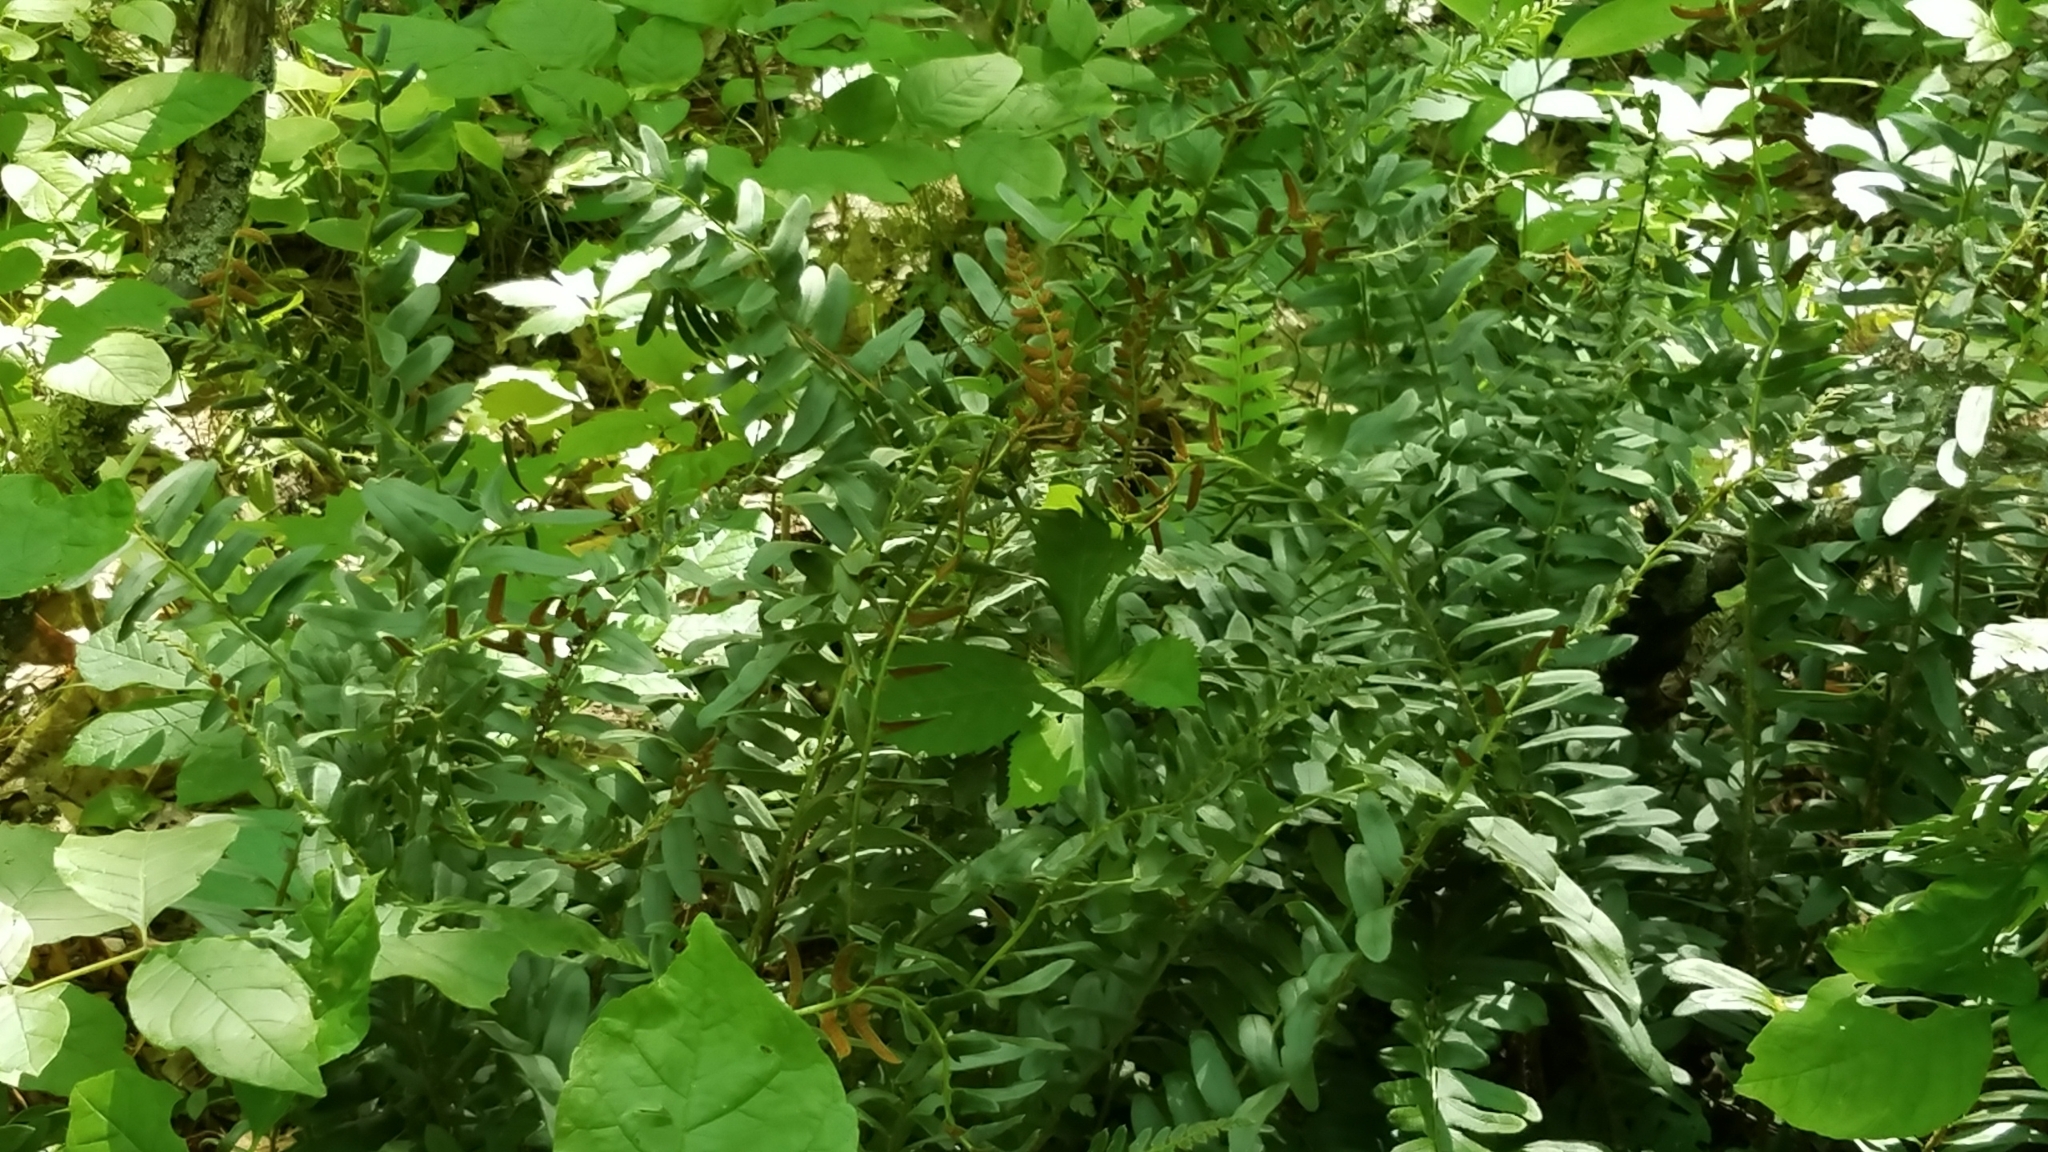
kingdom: Plantae
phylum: Tracheophyta
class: Polypodiopsida
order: Polypodiales
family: Dryopteridaceae
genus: Polystichum
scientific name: Polystichum acrostichoides
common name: Christmas fern
